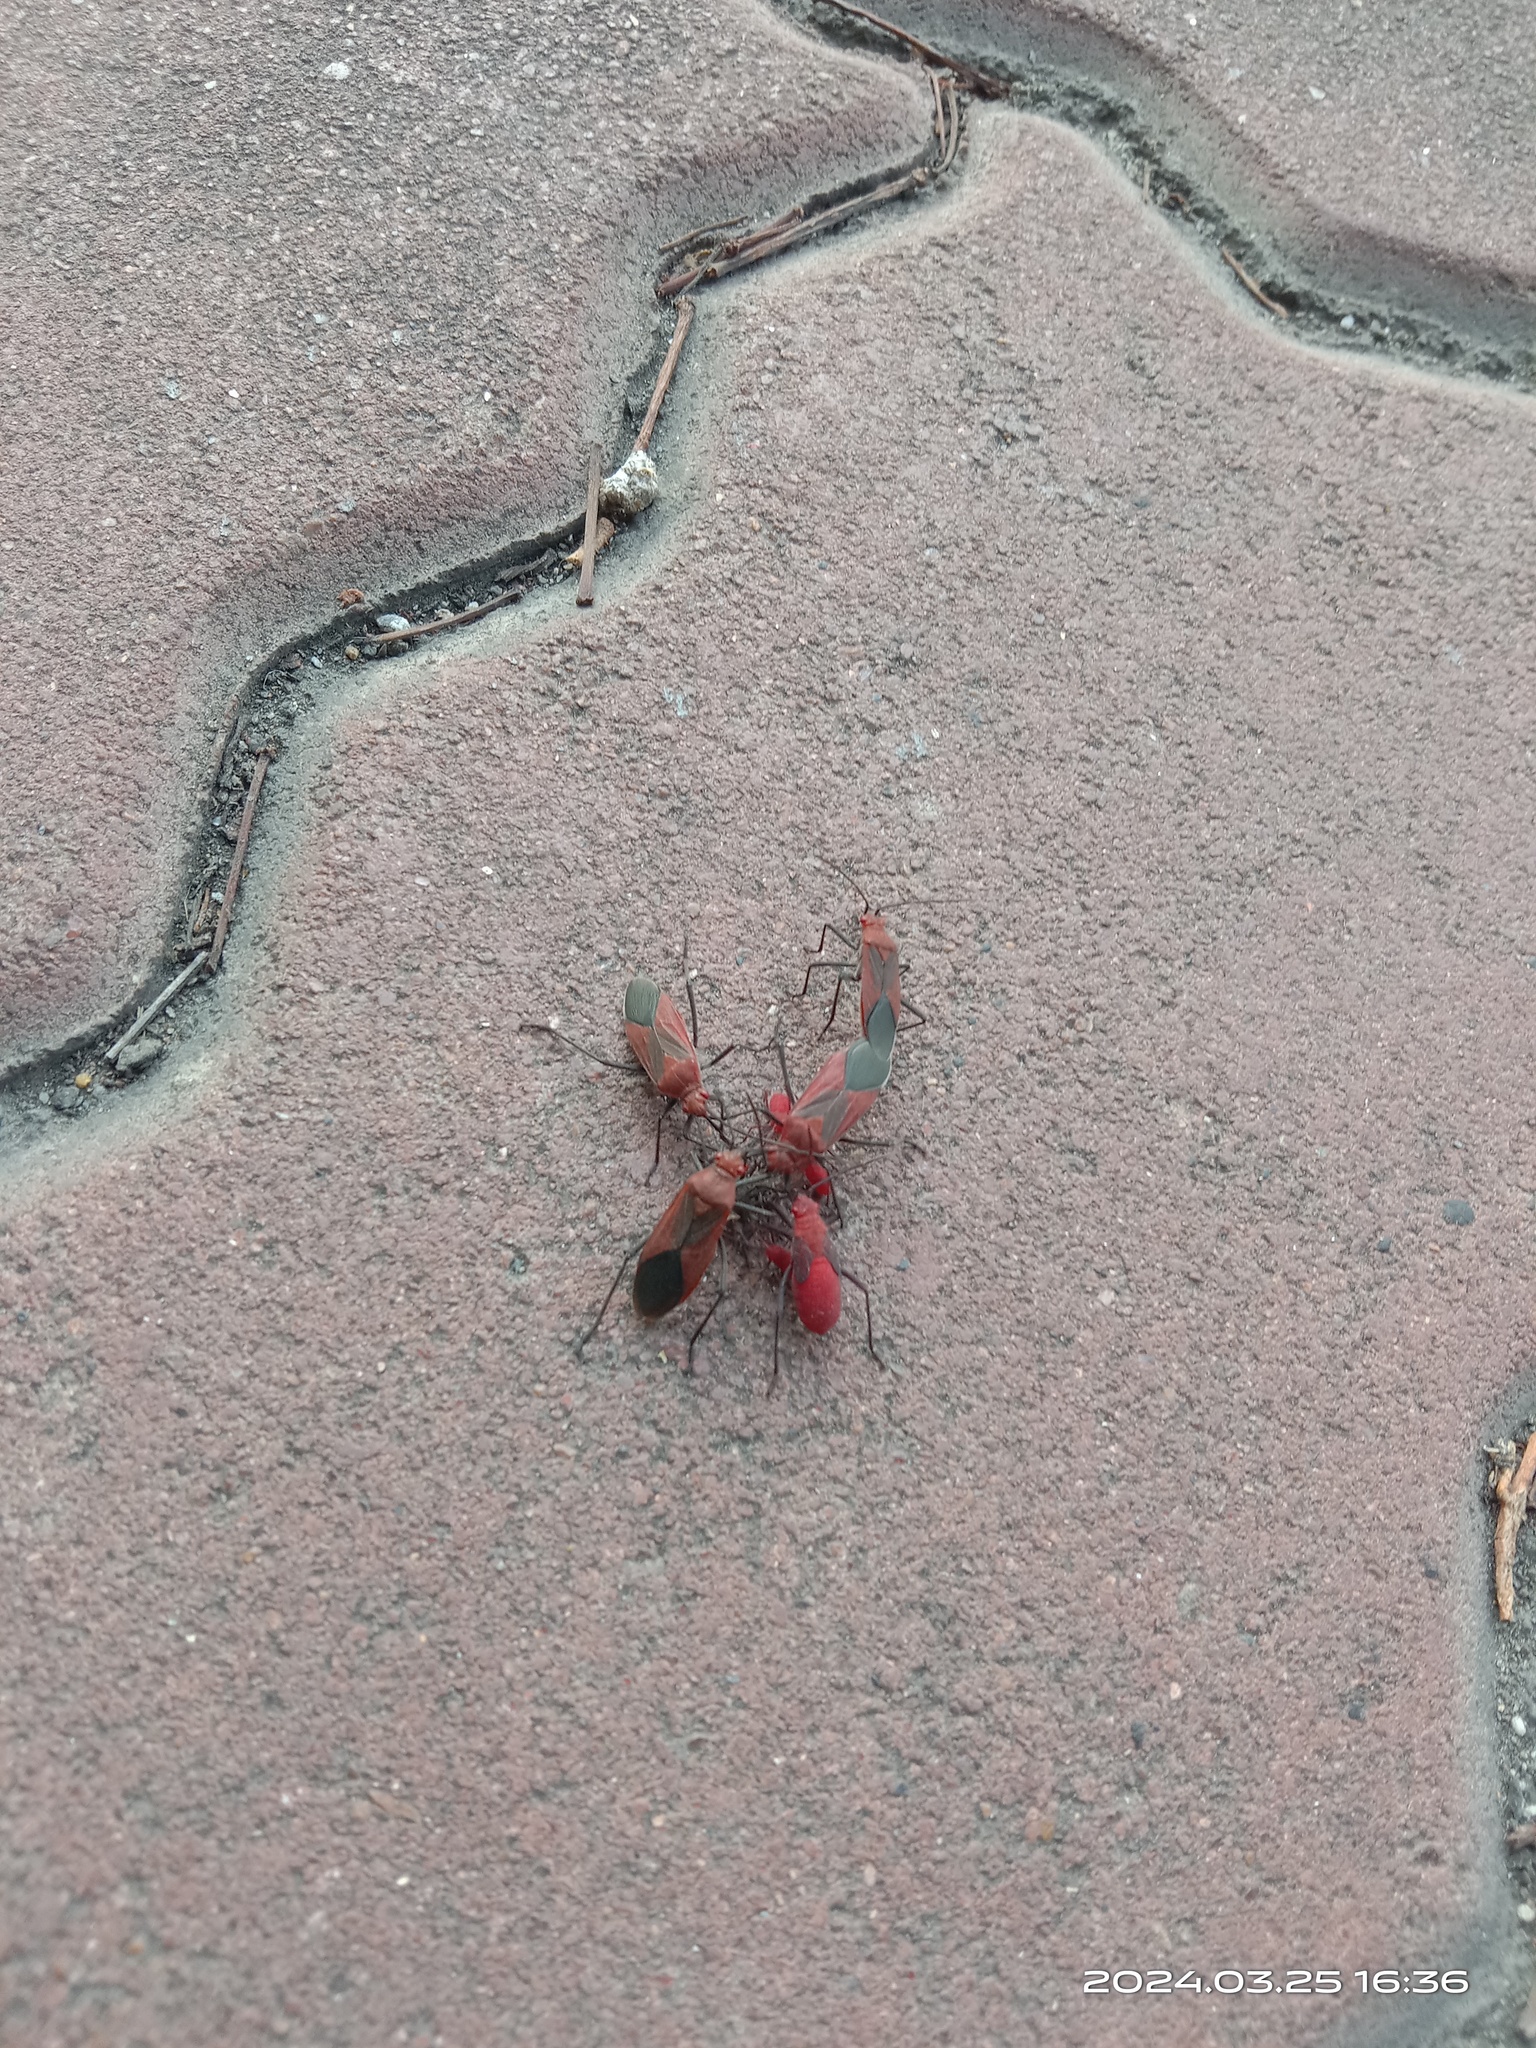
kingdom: Animalia
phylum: Arthropoda
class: Insecta
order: Hemiptera
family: Rhopalidae
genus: Leptocoris
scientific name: Leptocoris vicinus
